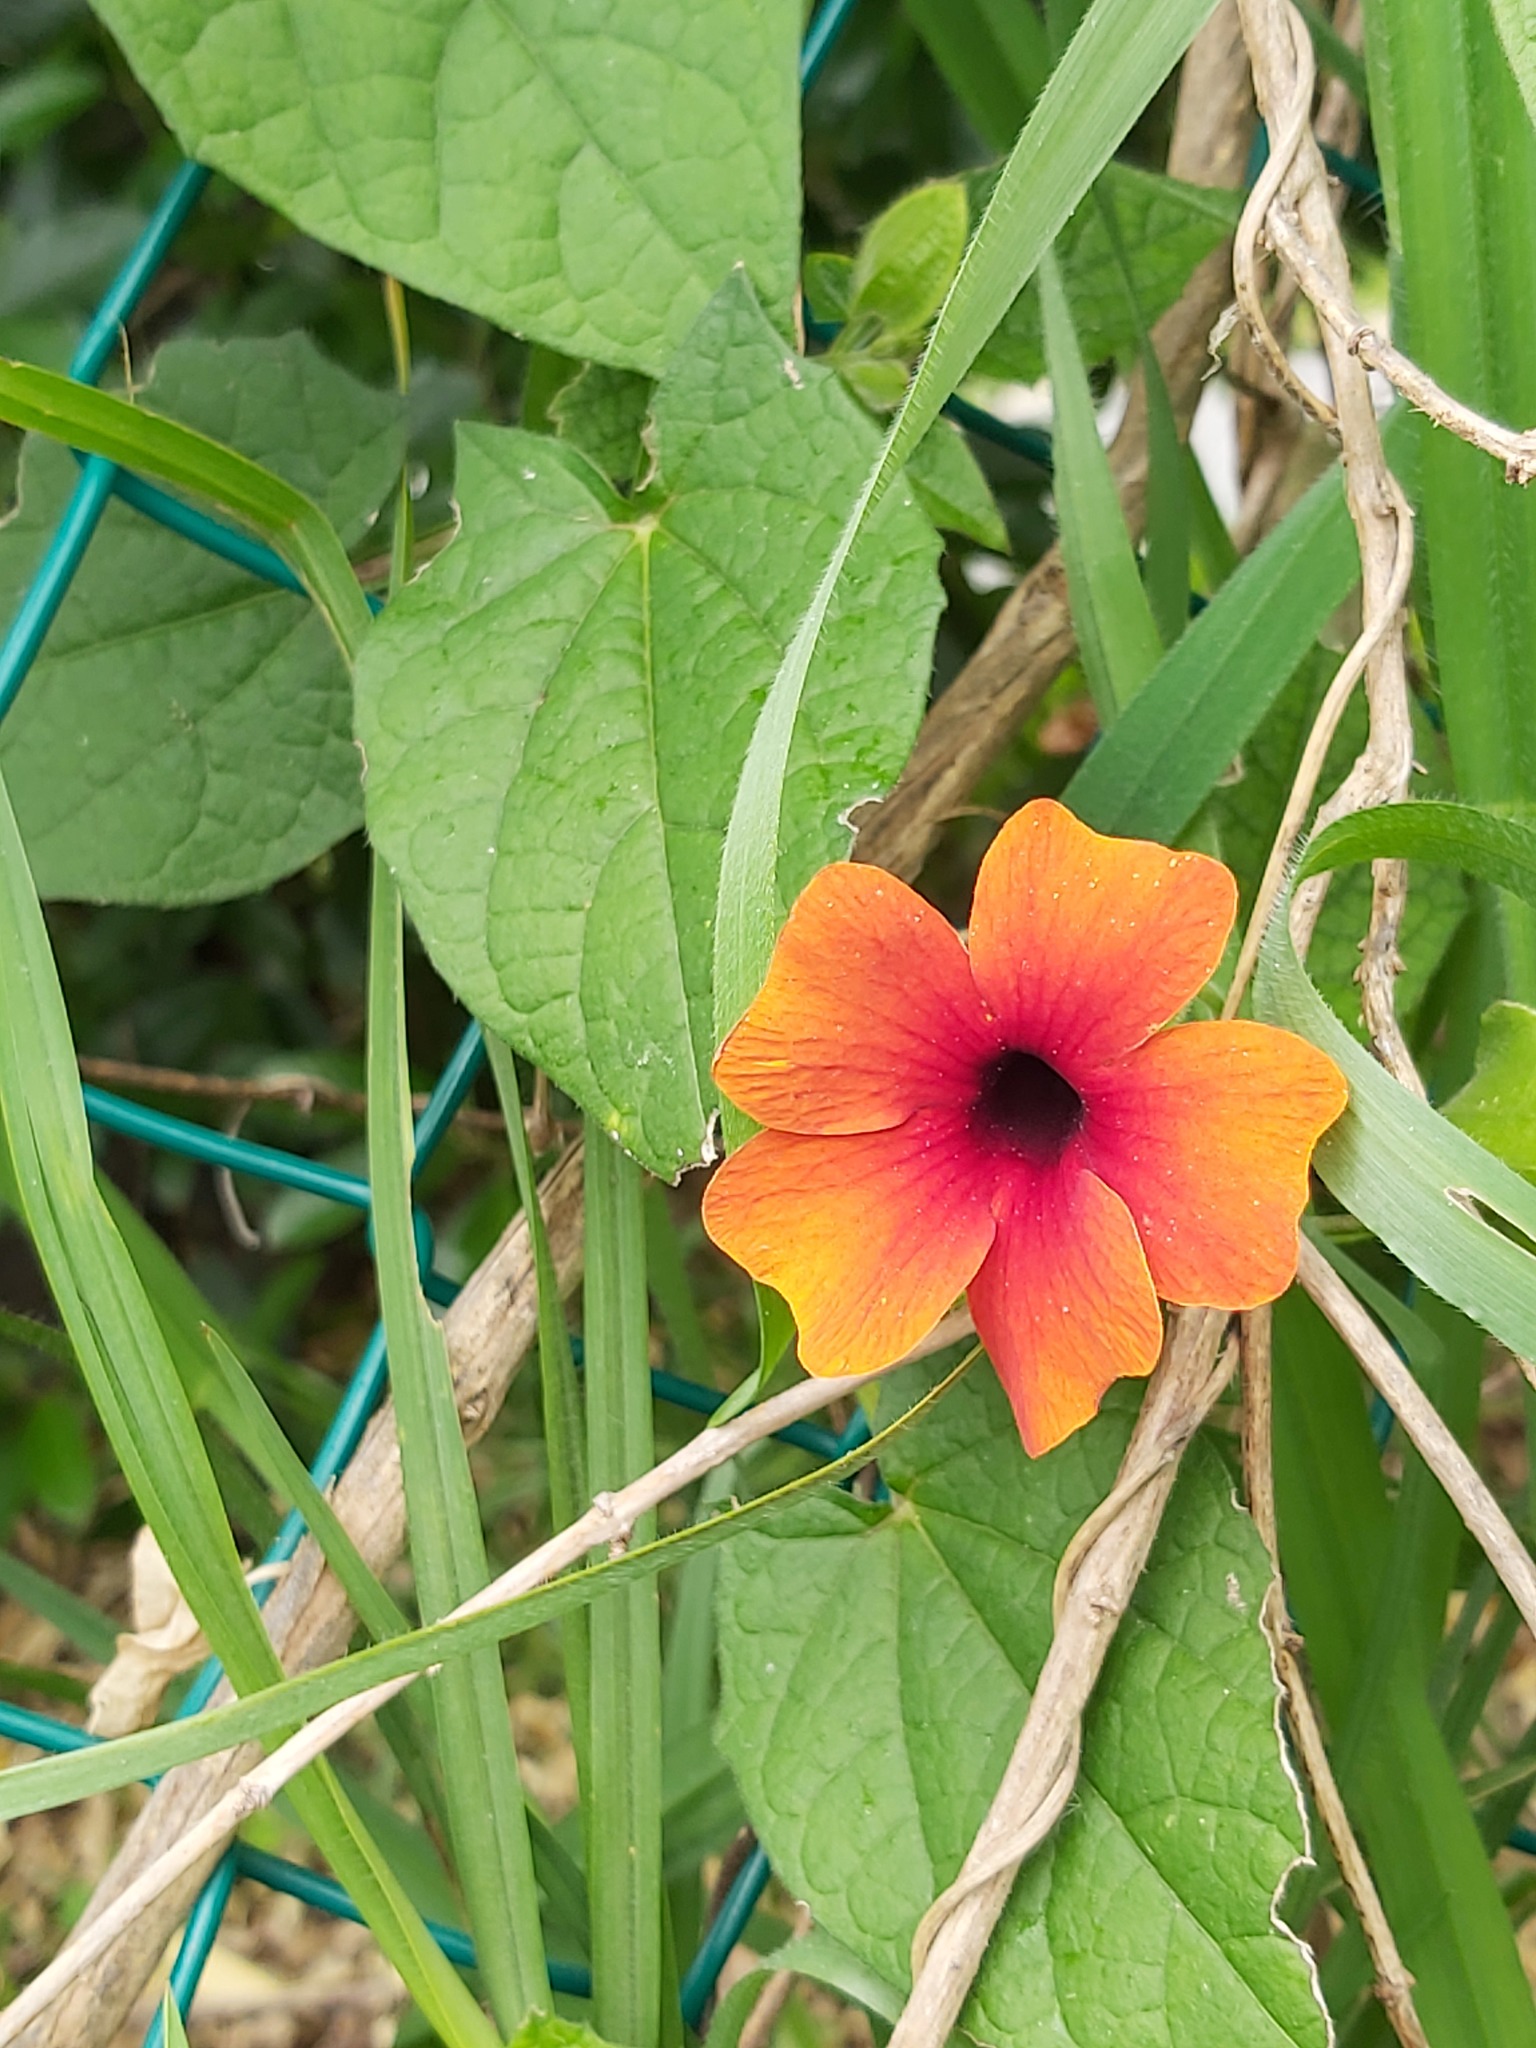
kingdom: Plantae
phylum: Tracheophyta
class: Magnoliopsida
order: Lamiales
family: Acanthaceae
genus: Thunbergia
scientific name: Thunbergia alata
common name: Blackeyed susan vine
